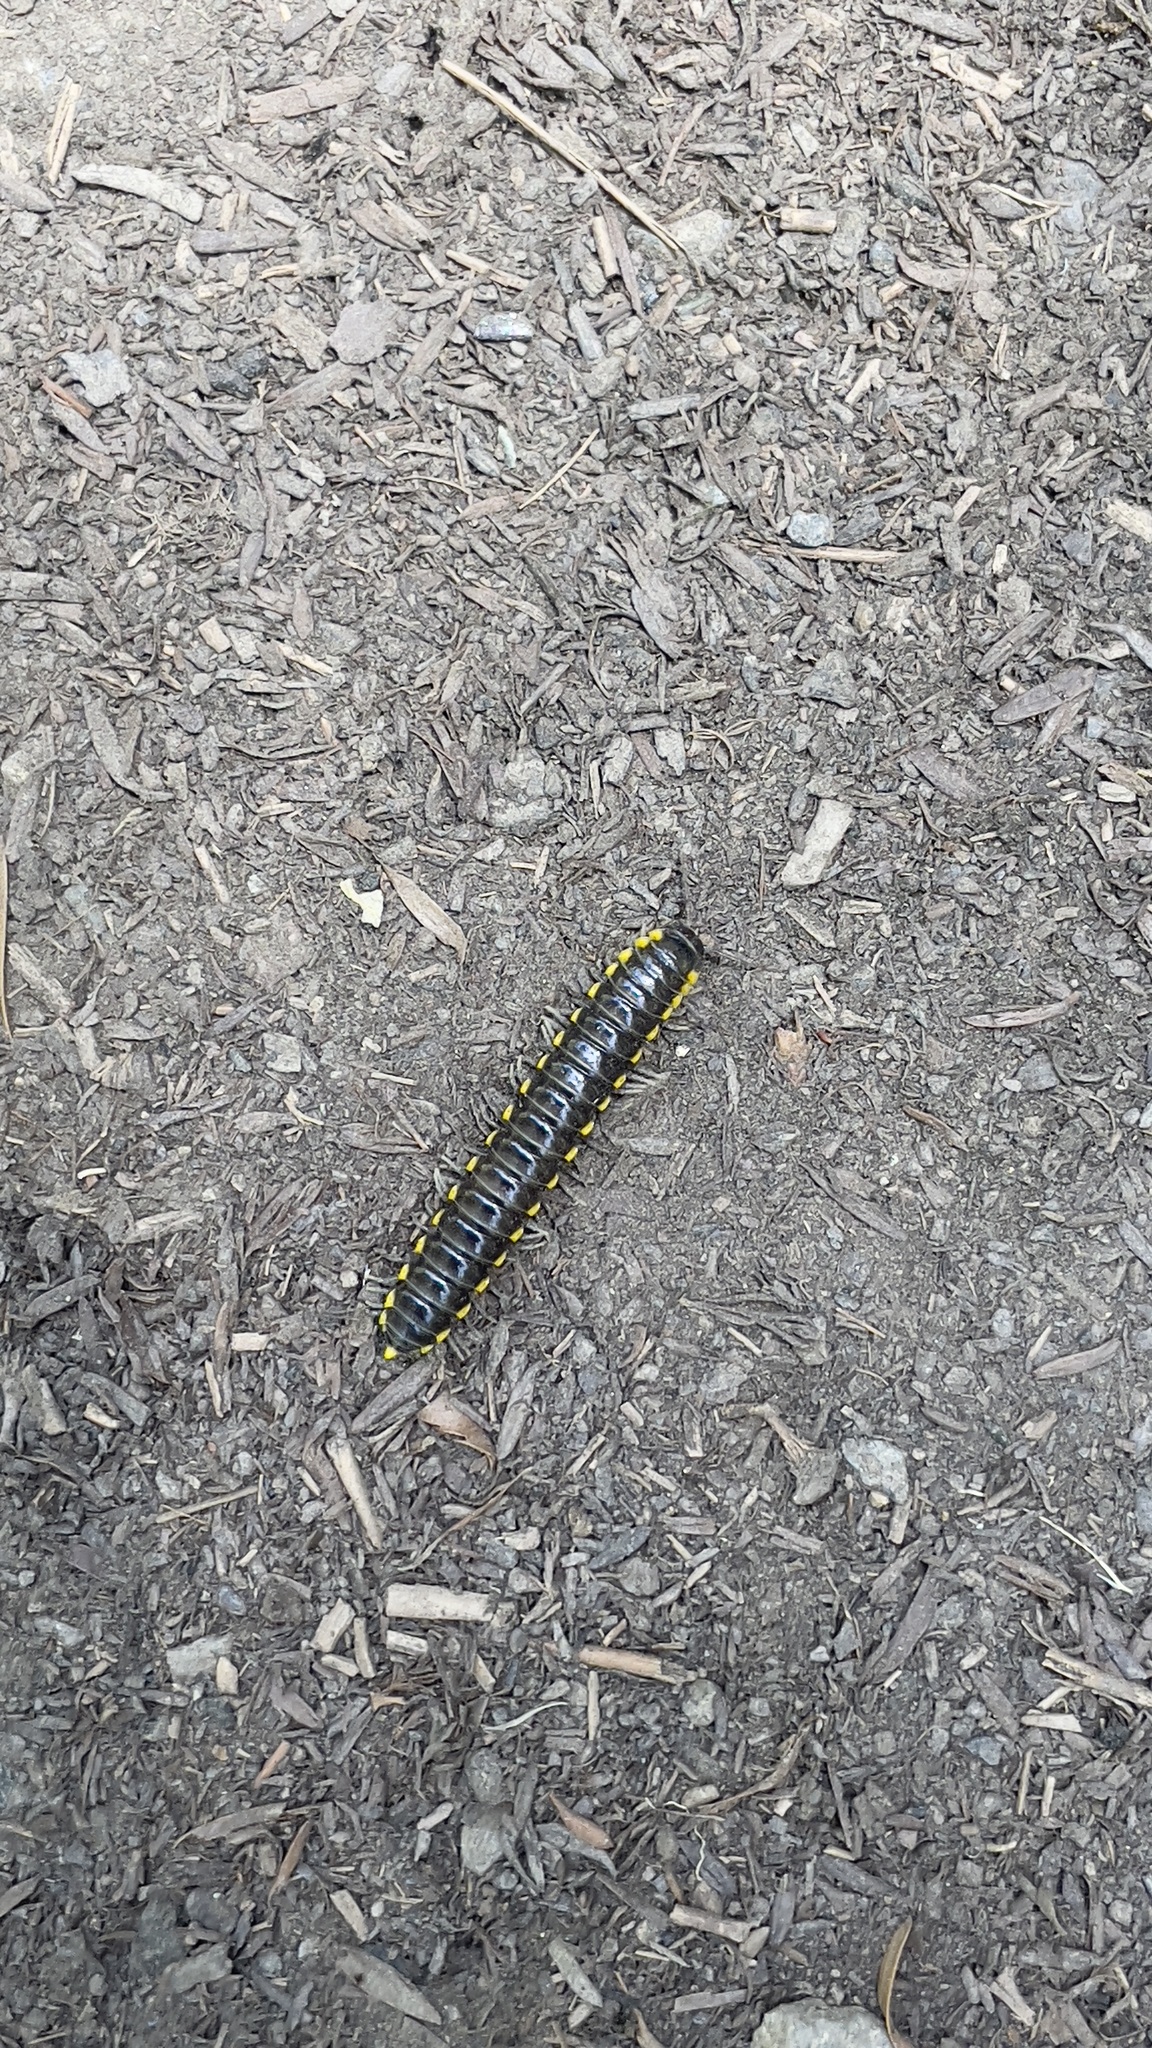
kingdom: Animalia
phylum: Arthropoda
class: Diplopoda
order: Polydesmida
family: Xystodesmidae
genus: Harpaphe
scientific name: Harpaphe haydeniana
